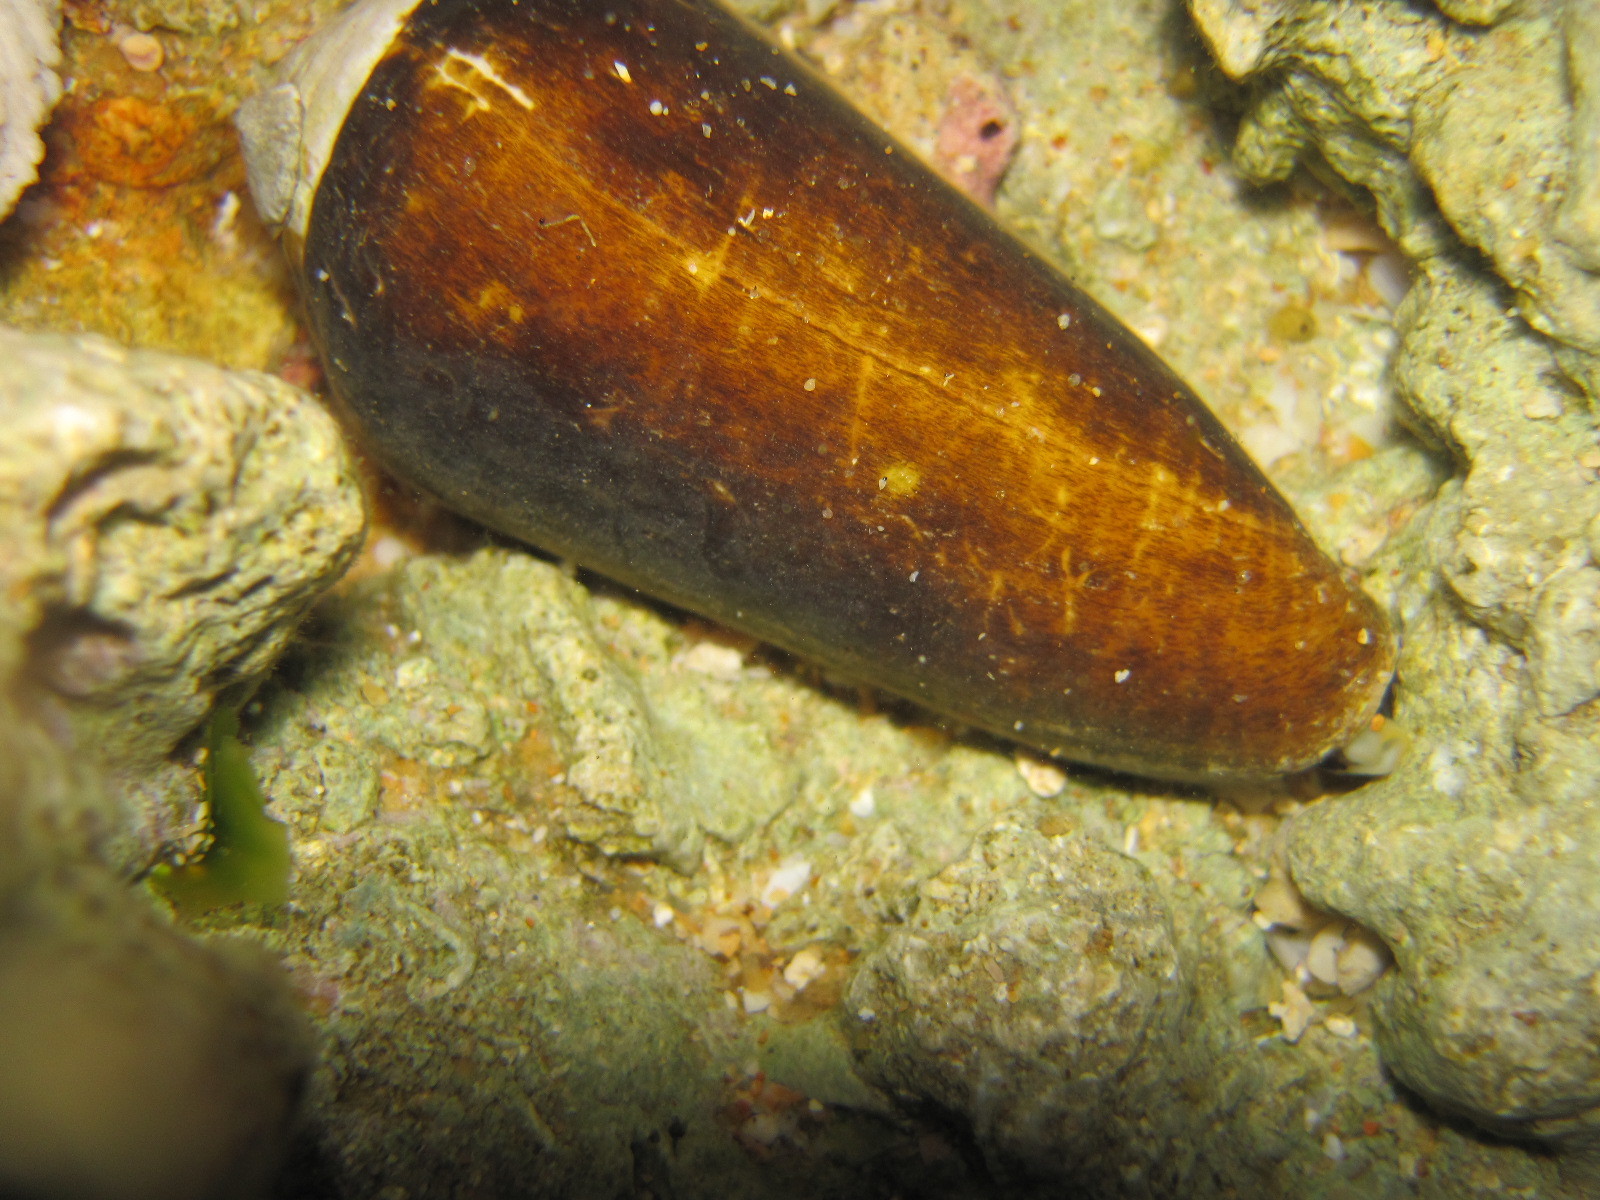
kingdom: Animalia
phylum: Mollusca
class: Gastropoda
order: Neogastropoda
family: Conidae
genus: Conus
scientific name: Conus terebra
